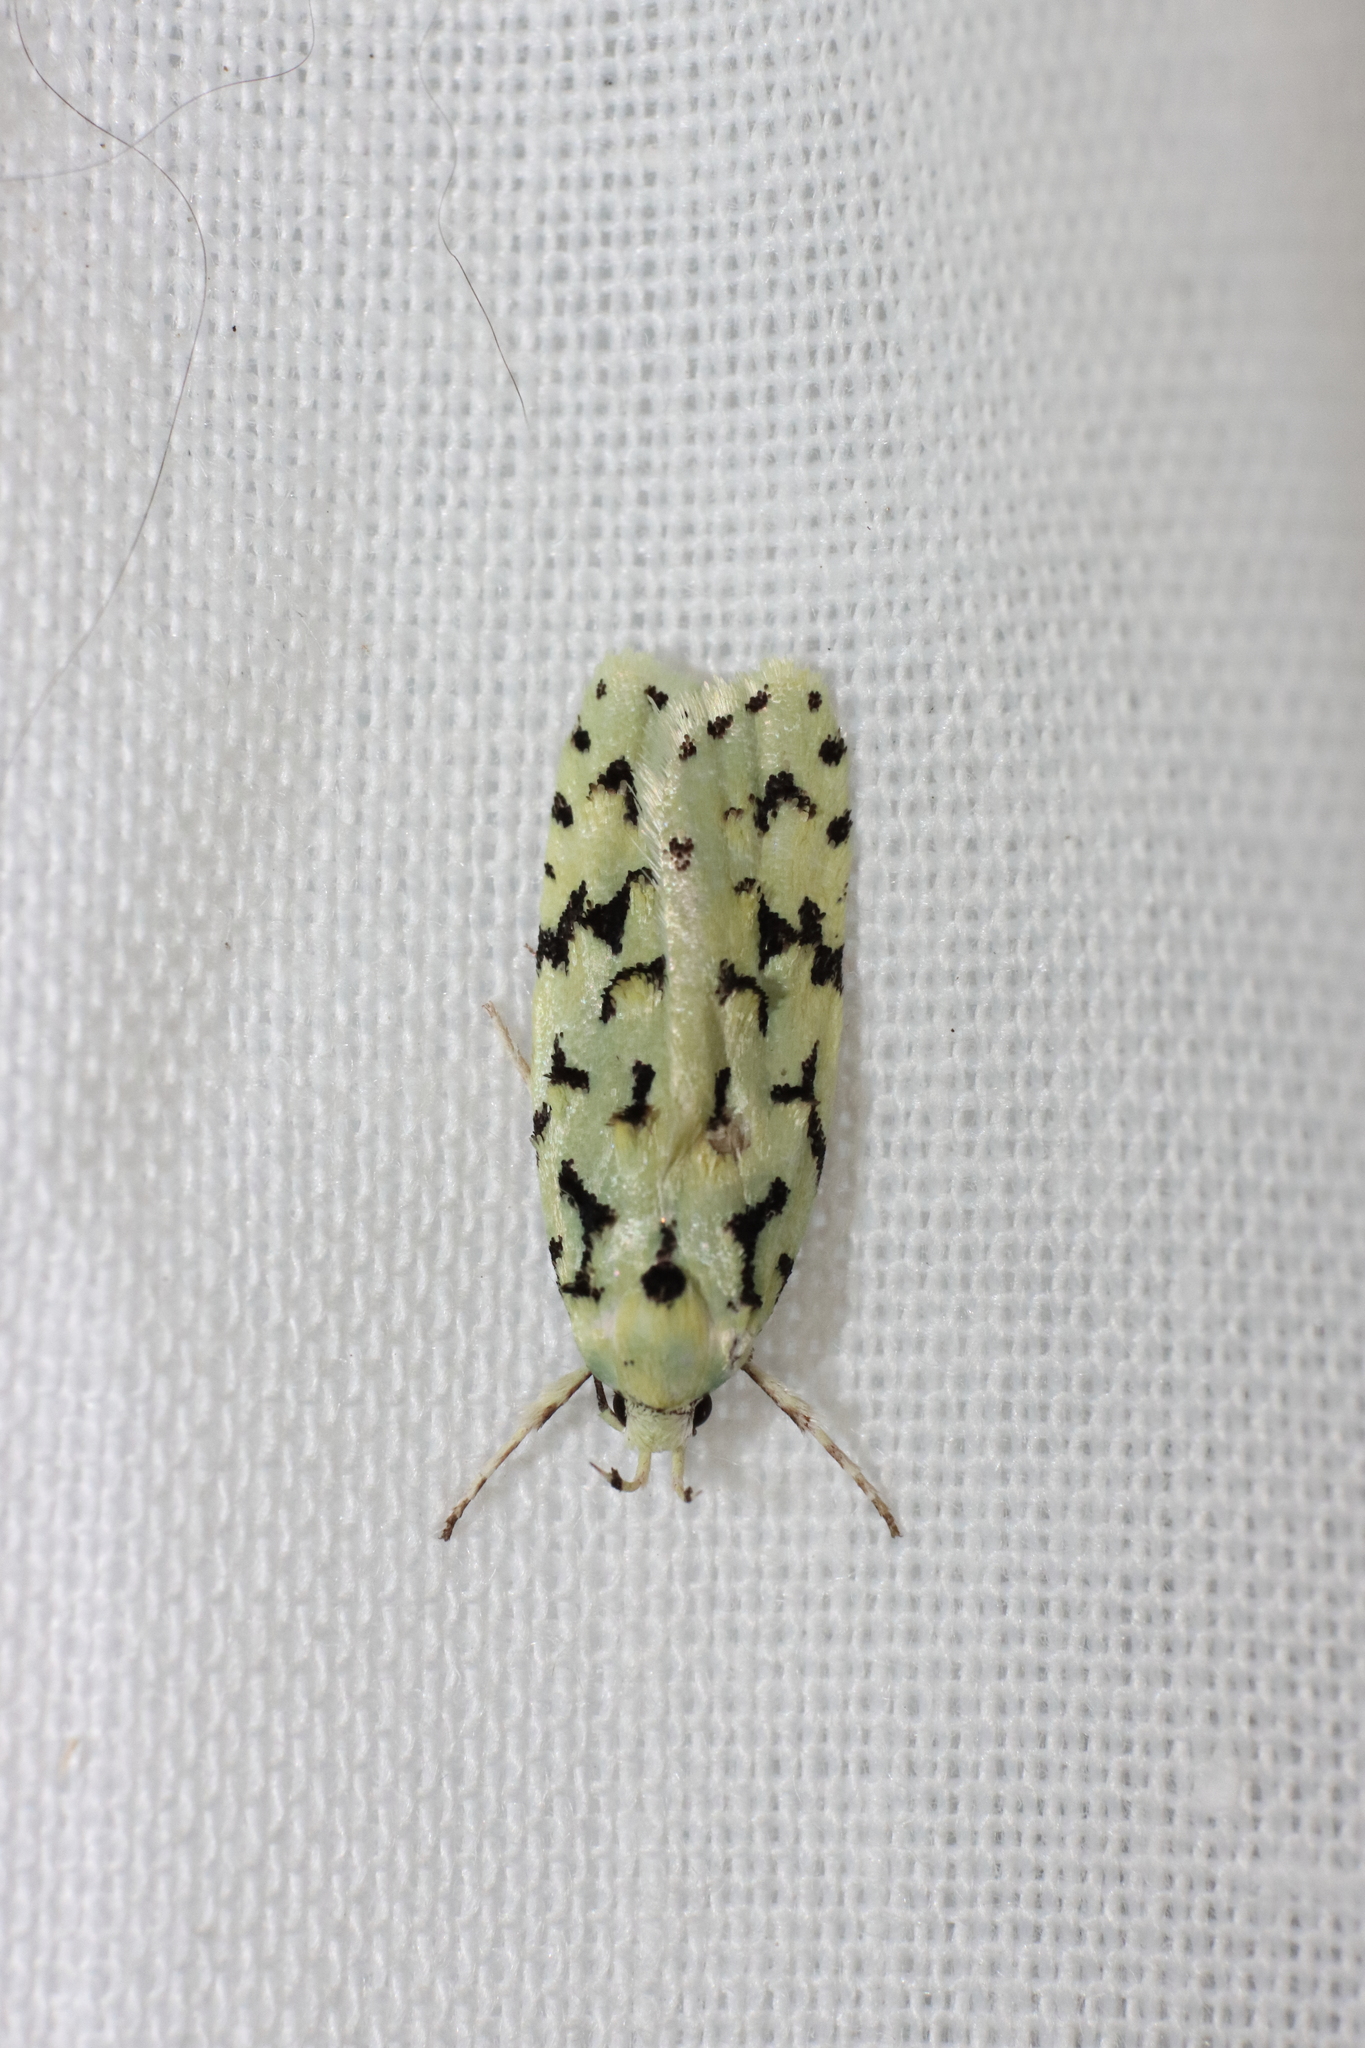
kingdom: Animalia
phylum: Arthropoda
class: Insecta
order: Lepidoptera
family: Oecophoridae
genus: Izatha
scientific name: Izatha peroneanella
